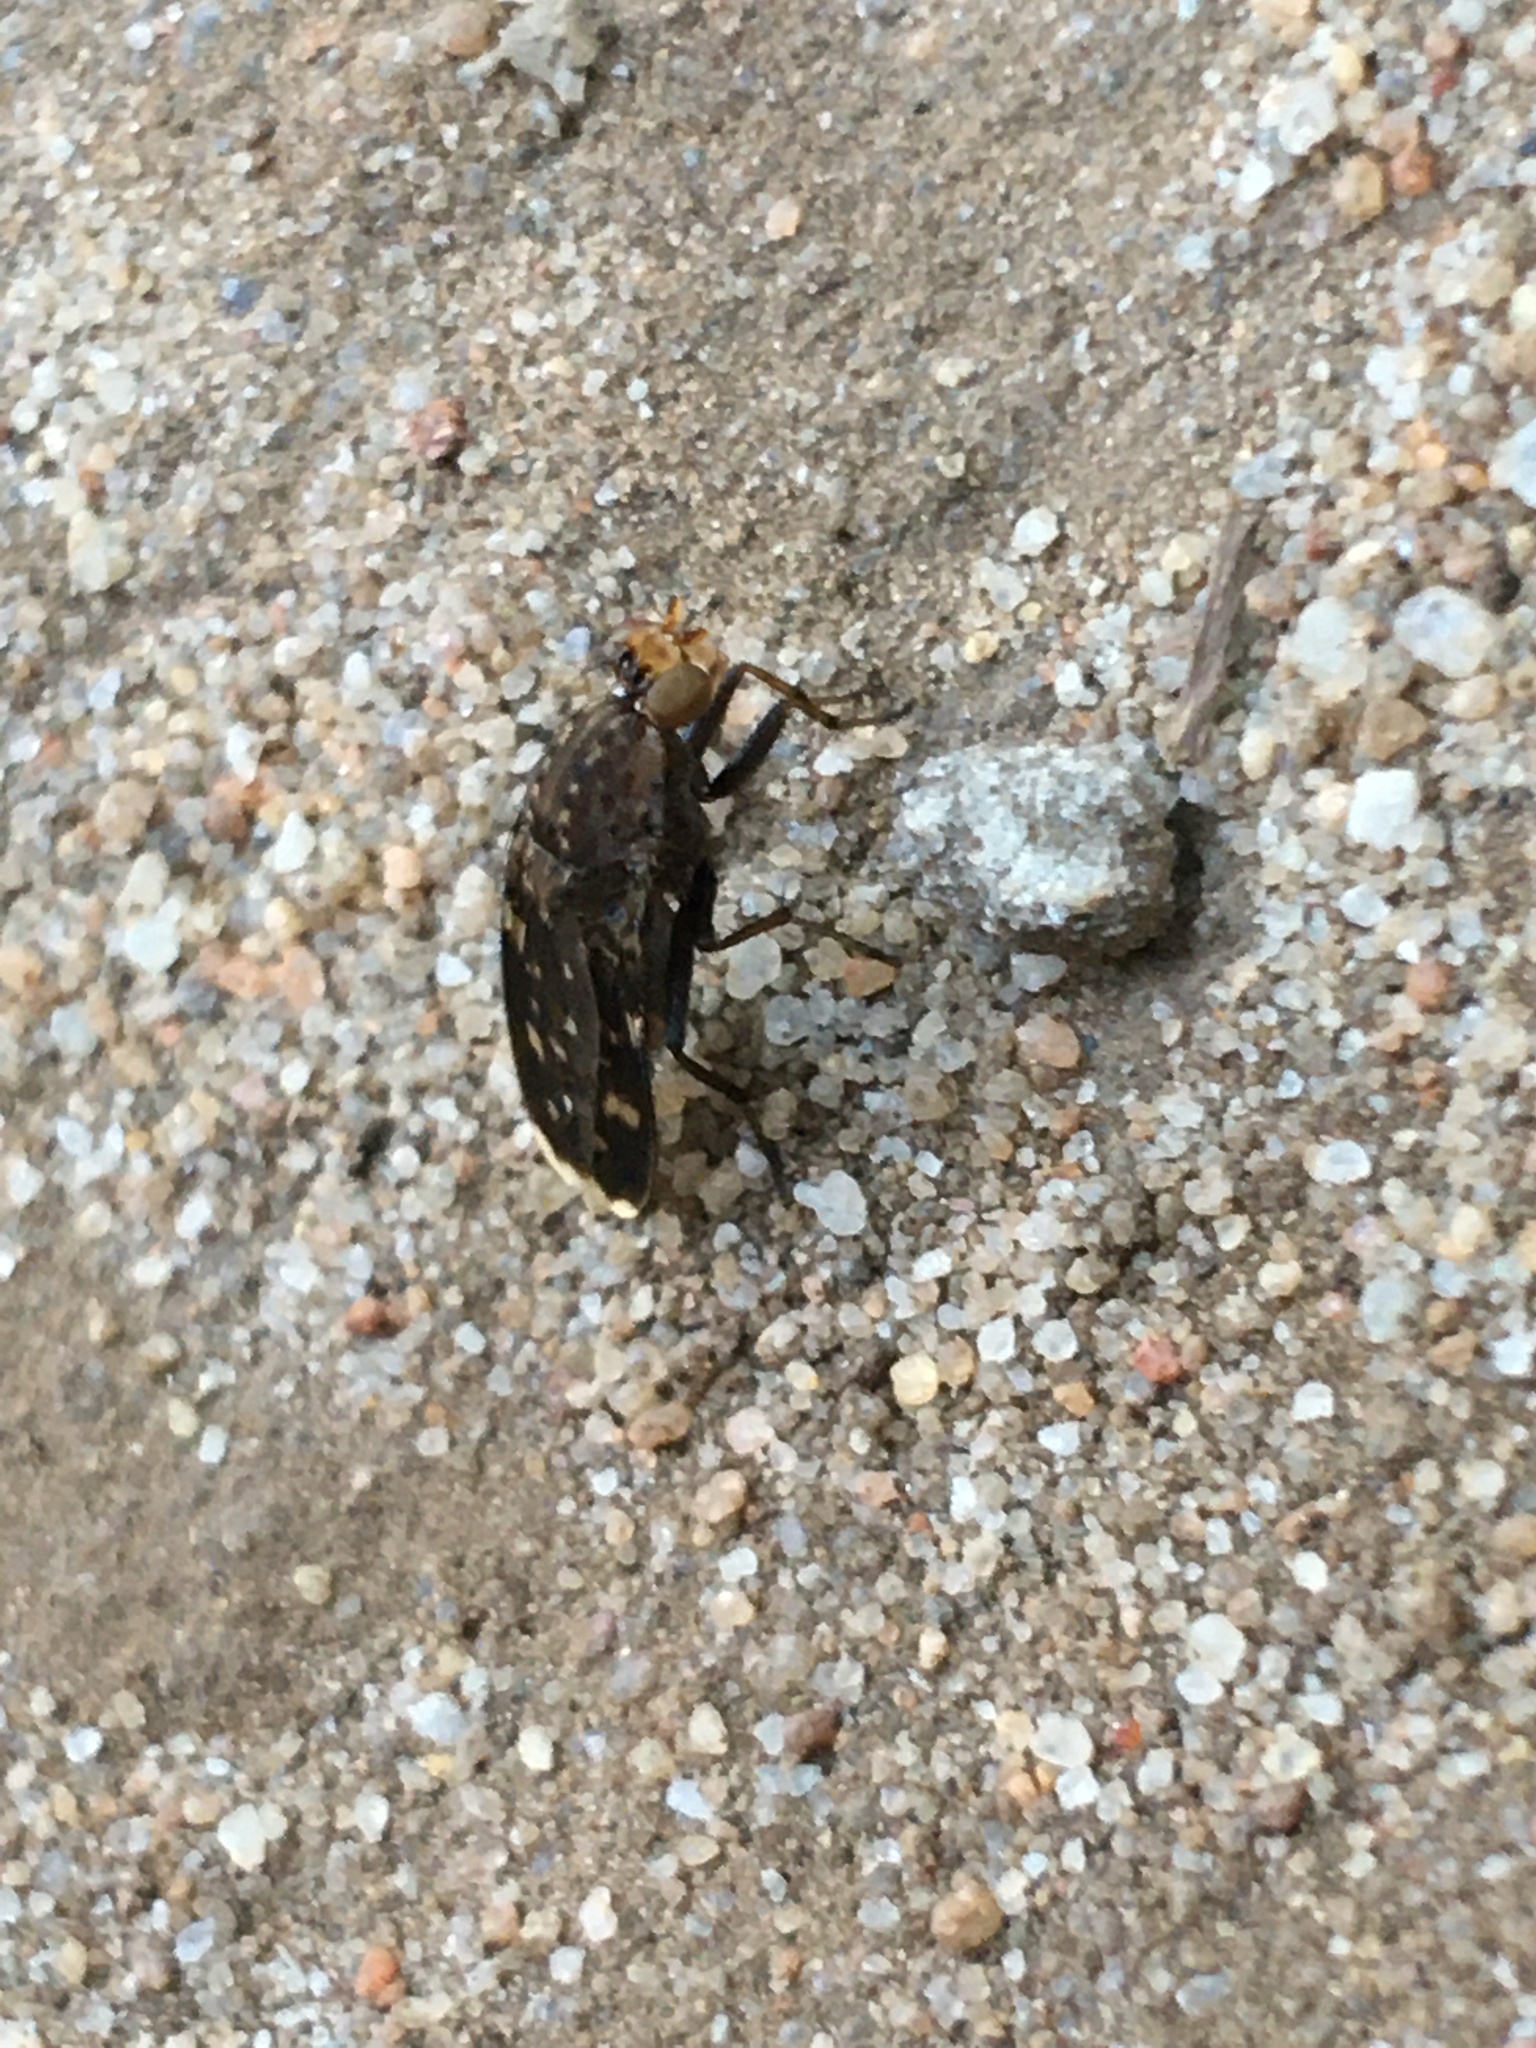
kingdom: Animalia
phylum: Arthropoda
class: Insecta
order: Diptera
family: Heleomyzidae
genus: Suillia
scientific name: Suillia picta
